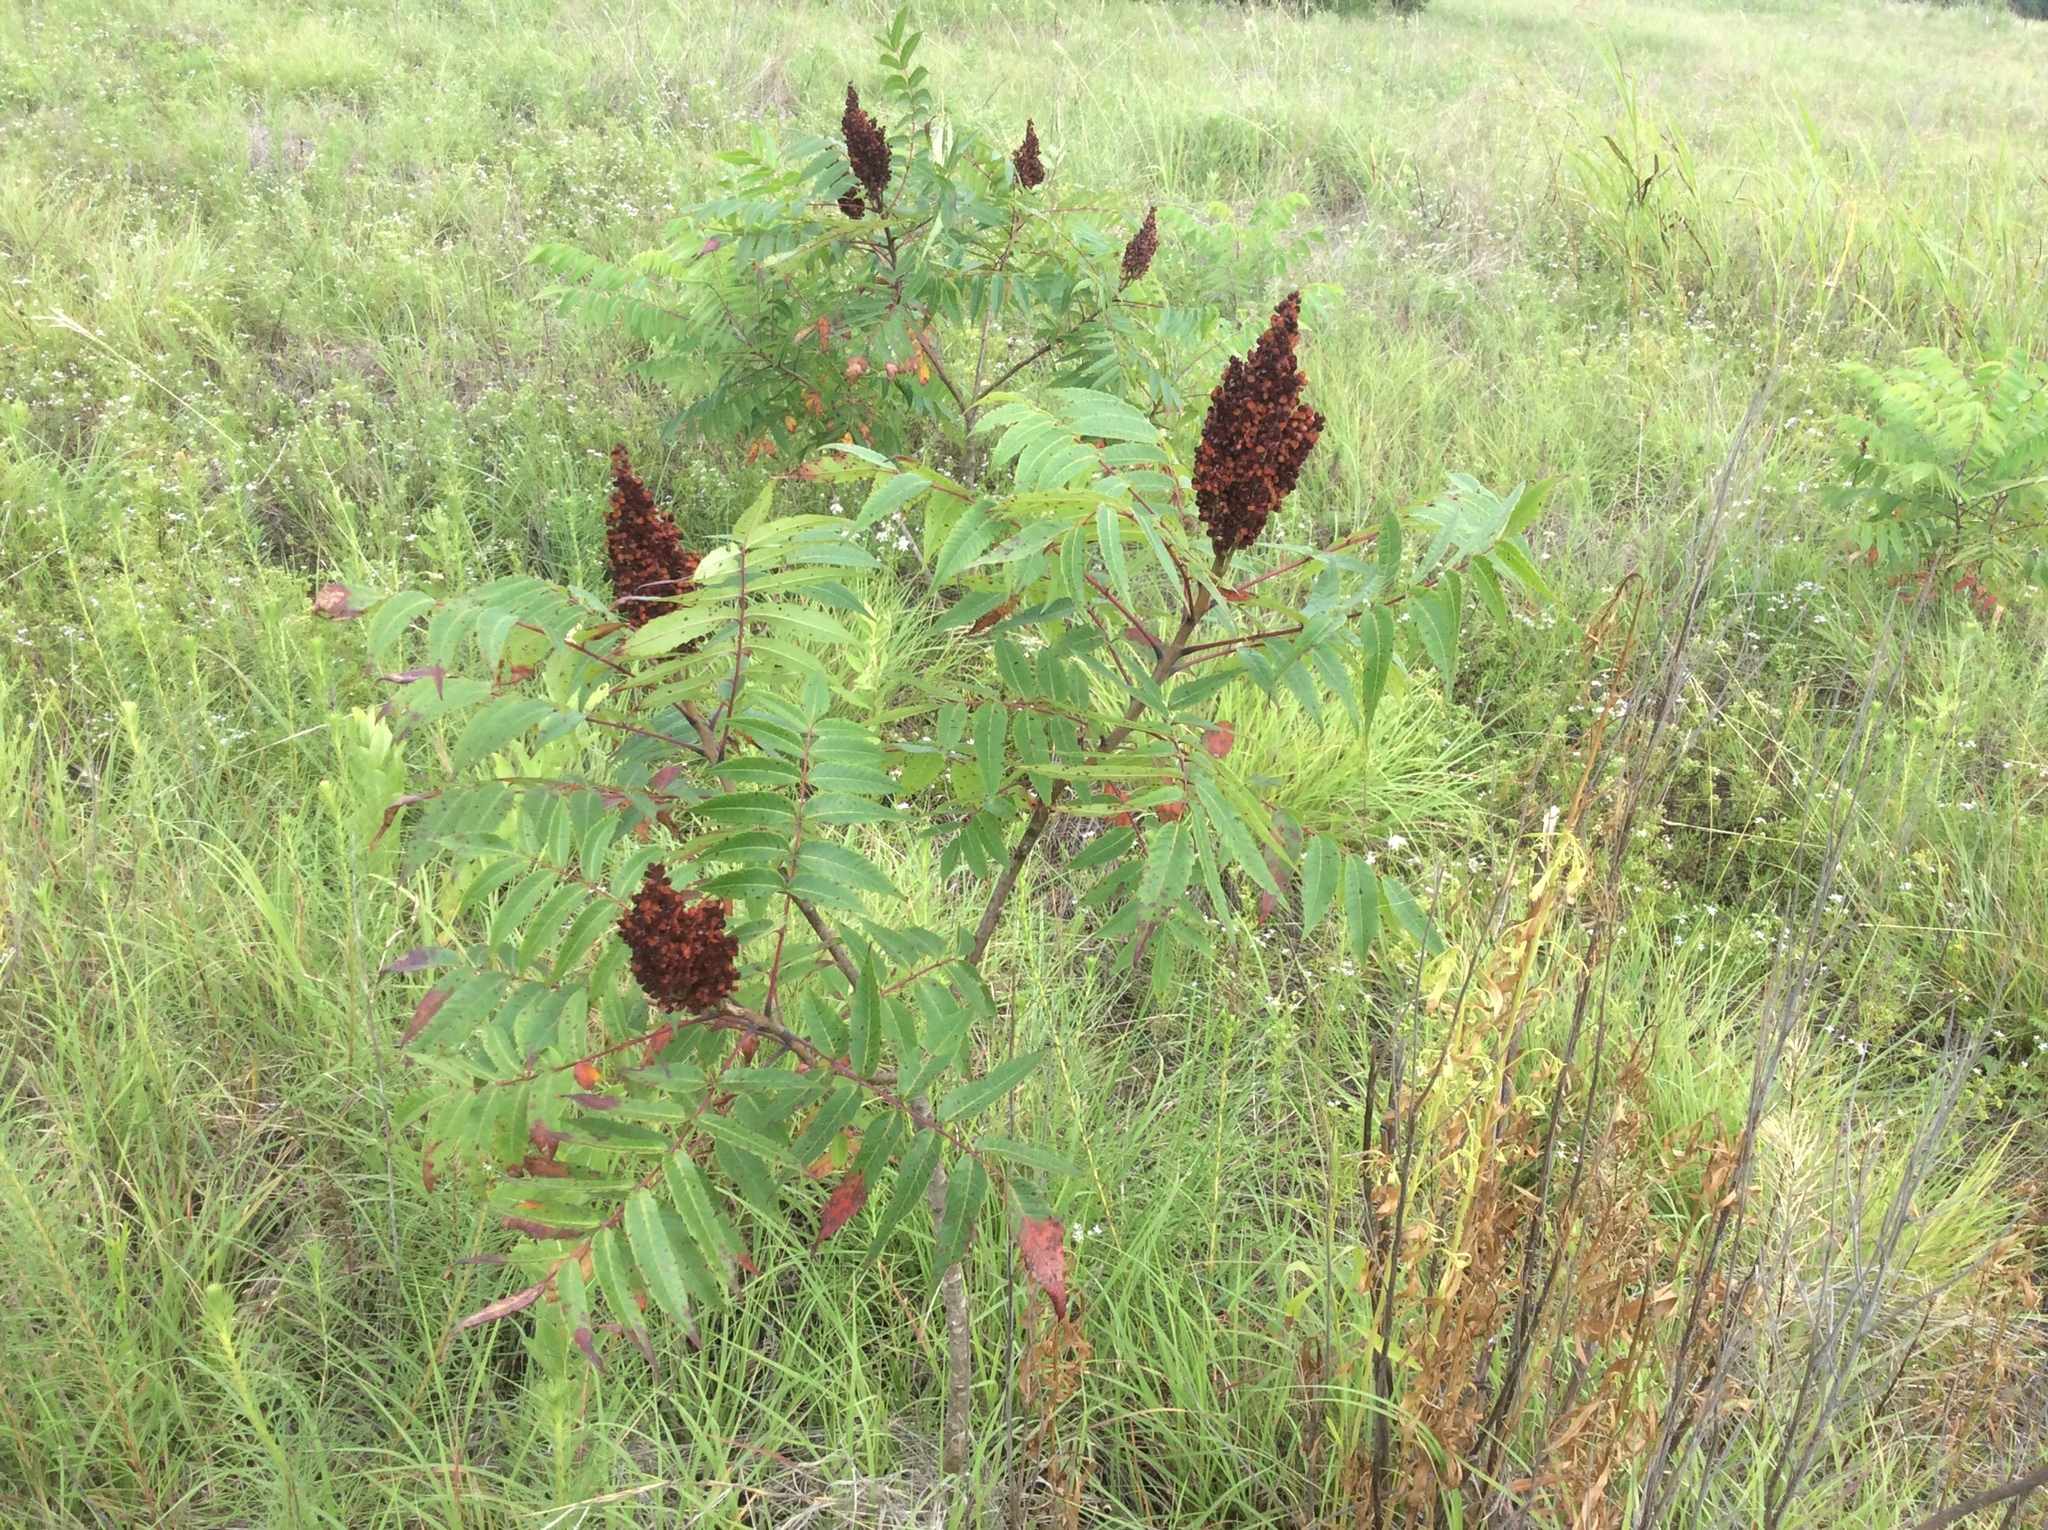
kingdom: Plantae
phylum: Tracheophyta
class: Magnoliopsida
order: Sapindales
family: Anacardiaceae
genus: Rhus
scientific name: Rhus glabra
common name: Scarlet sumac
